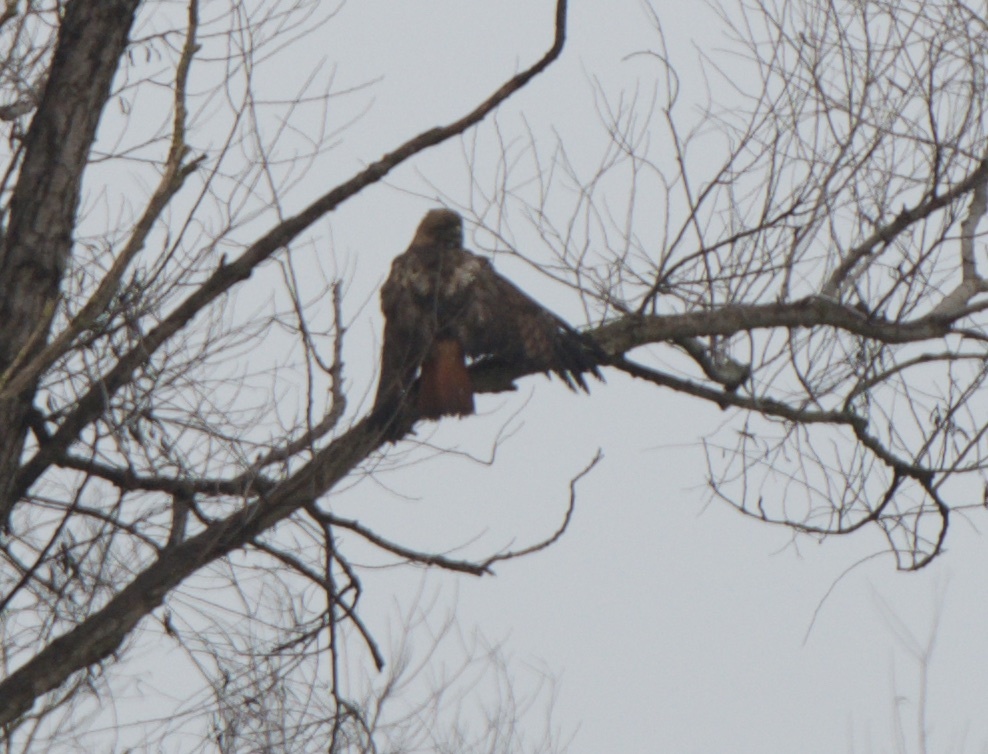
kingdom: Animalia
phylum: Chordata
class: Aves
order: Accipitriformes
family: Accipitridae
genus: Buteo
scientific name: Buteo jamaicensis
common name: Red-tailed hawk
